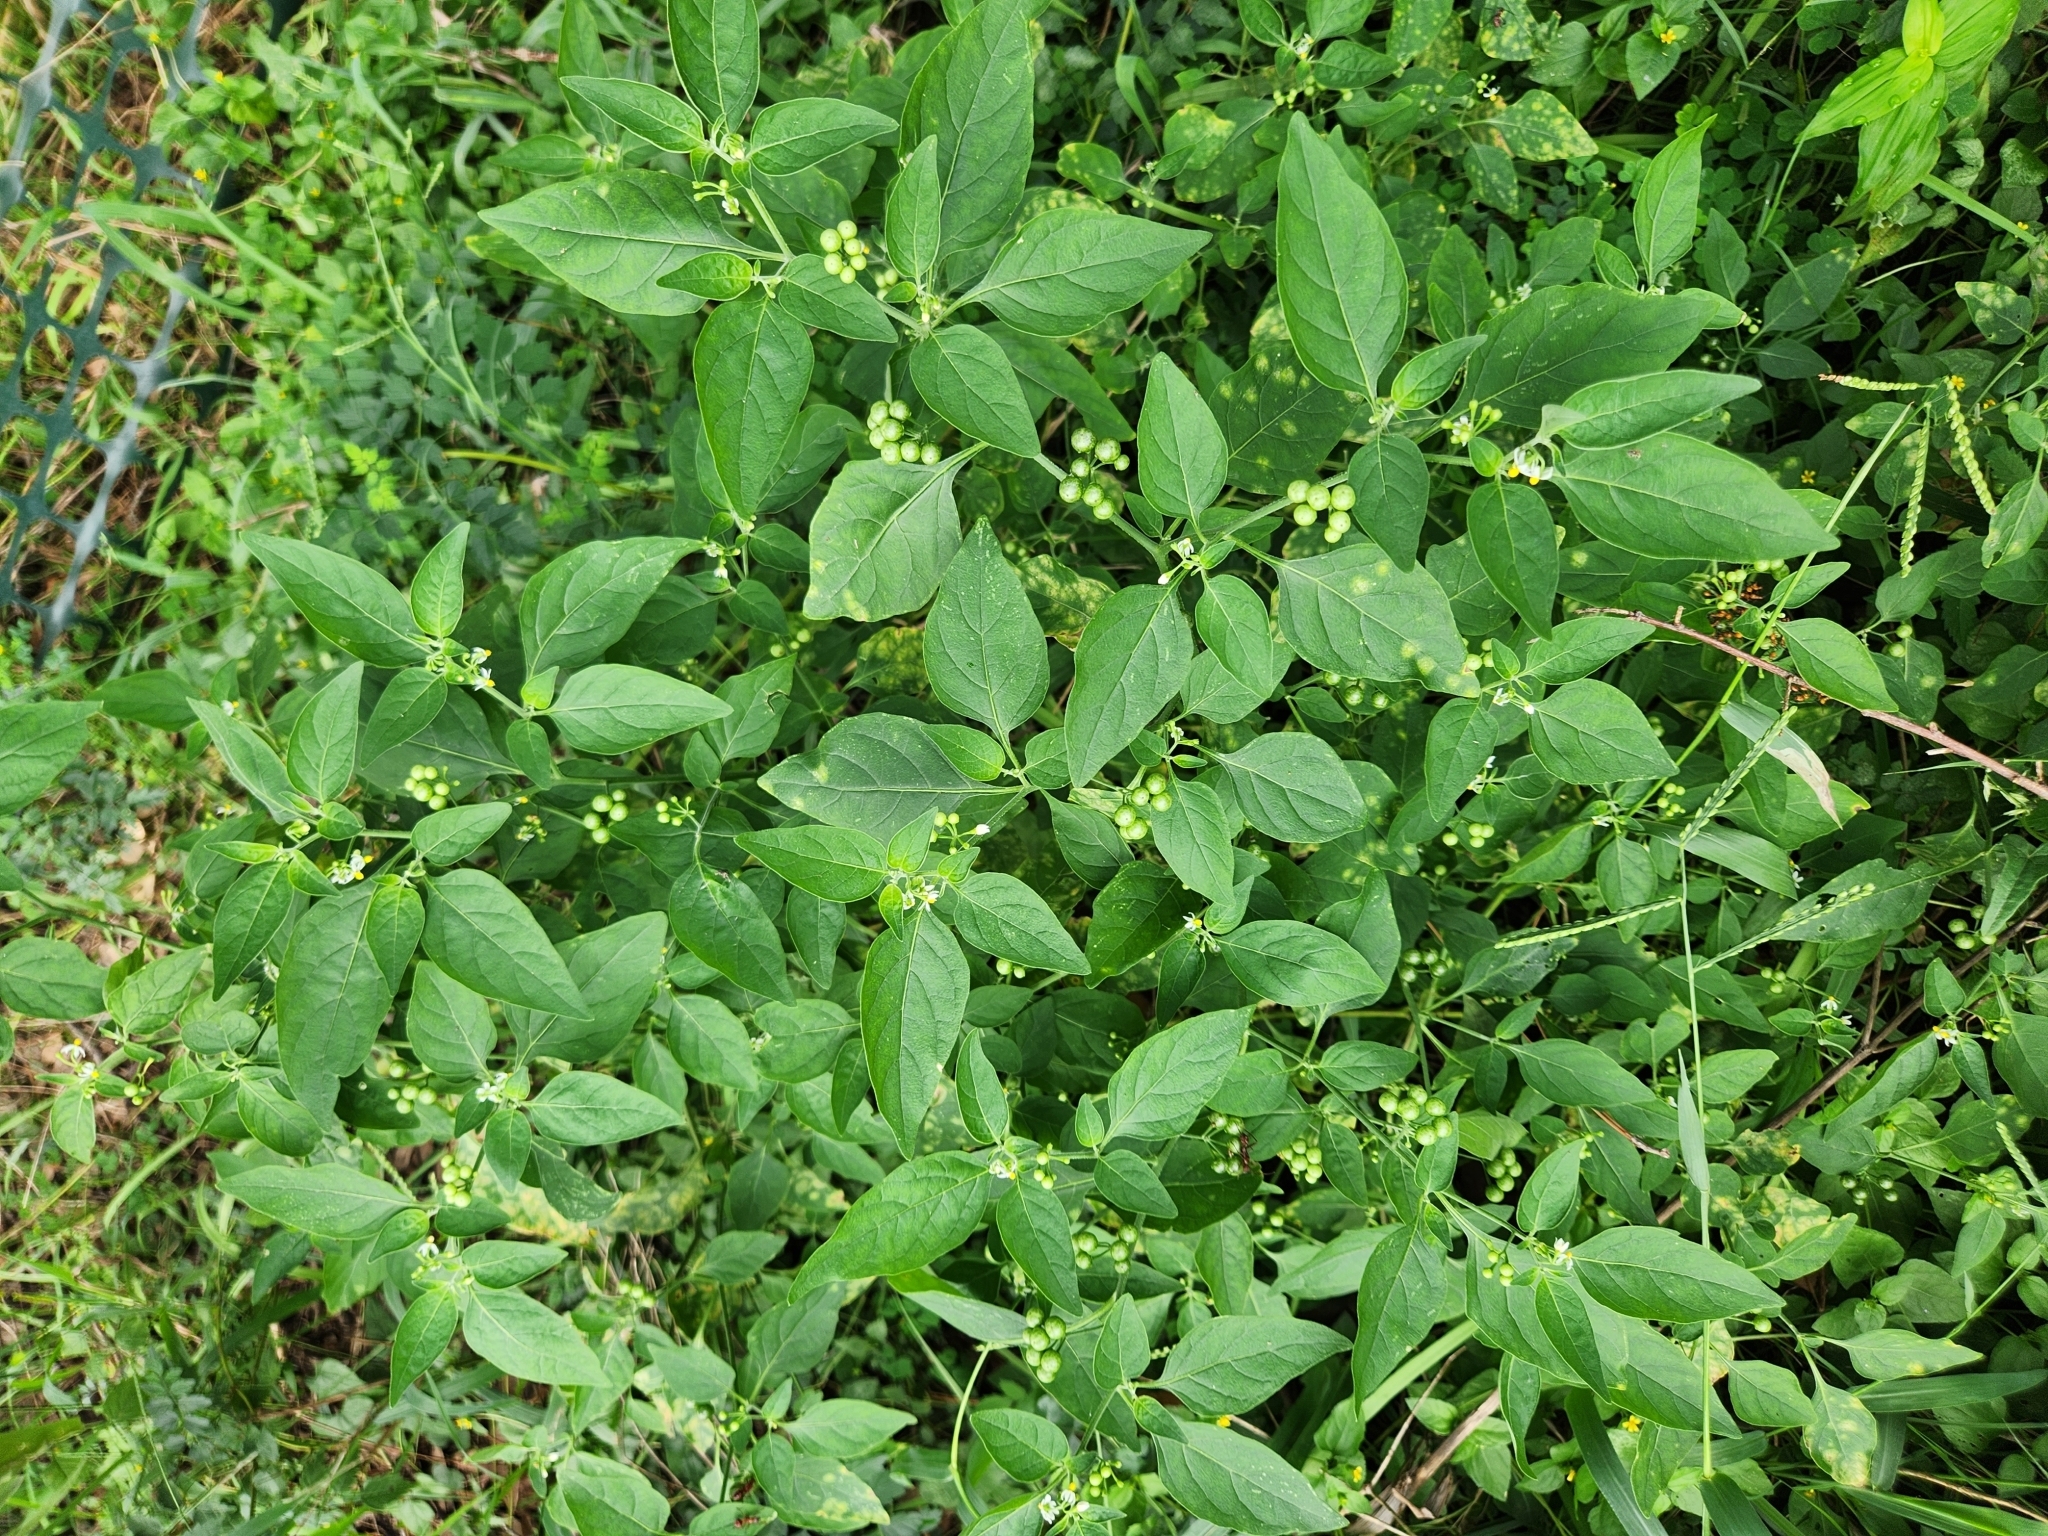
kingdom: Plantae
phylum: Tracheophyta
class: Magnoliopsida
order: Solanales
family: Solanaceae
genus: Solanum
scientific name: Solanum americanum
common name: American black nightshade
